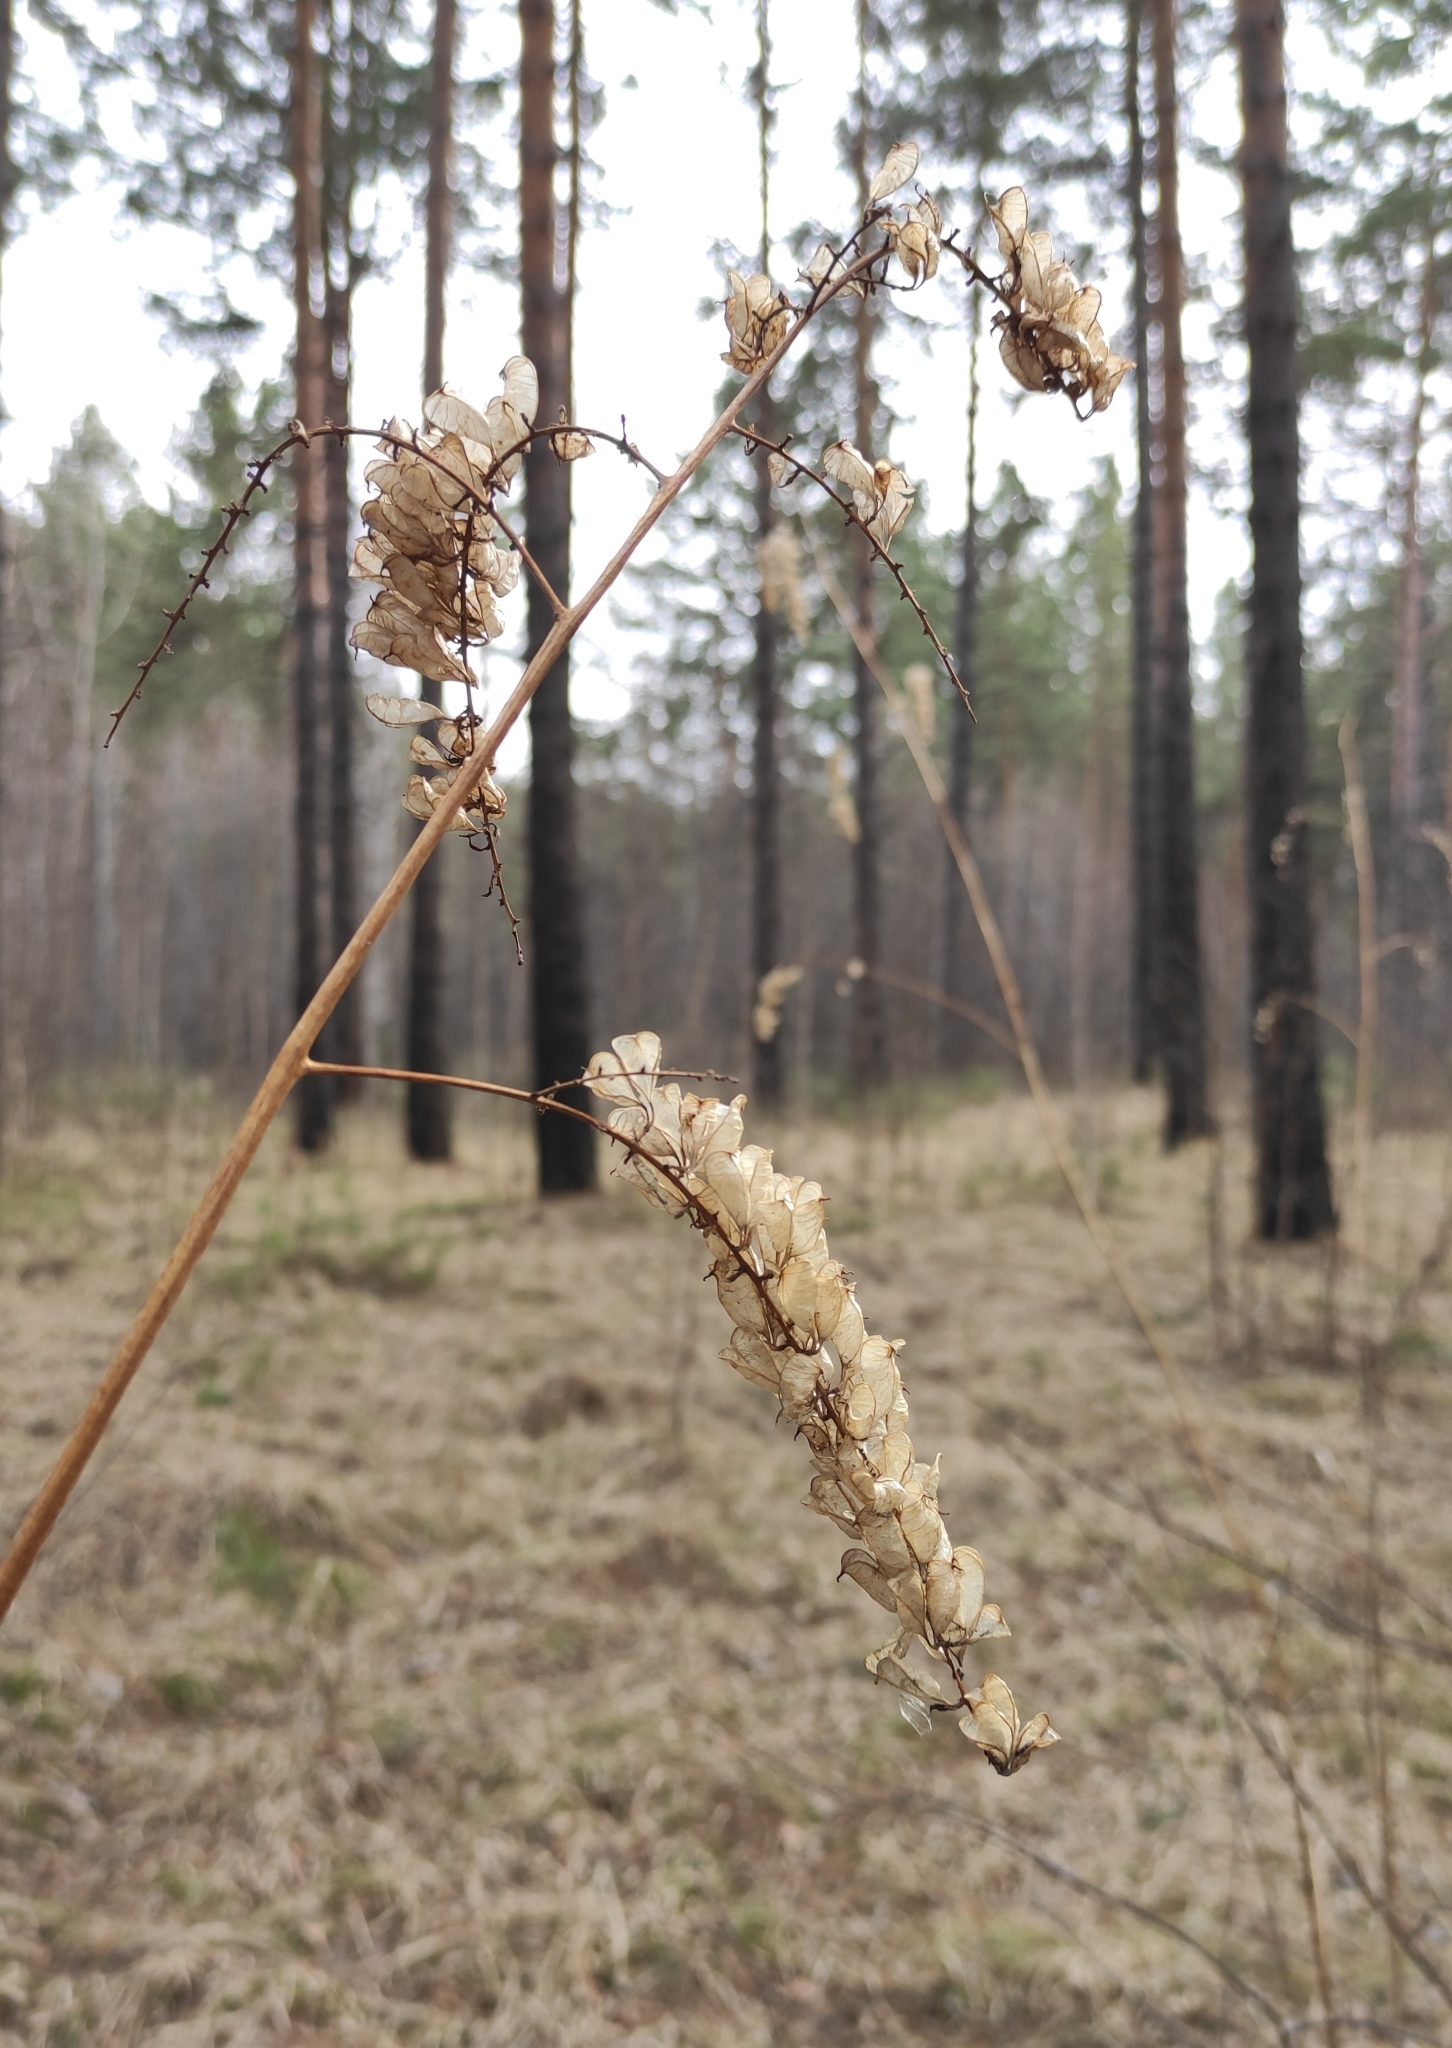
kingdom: Plantae
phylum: Tracheophyta
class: Magnoliopsida
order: Ranunculales
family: Ranunculaceae
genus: Actaea
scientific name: Actaea cimicifuga
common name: Chinese cimicifuga
